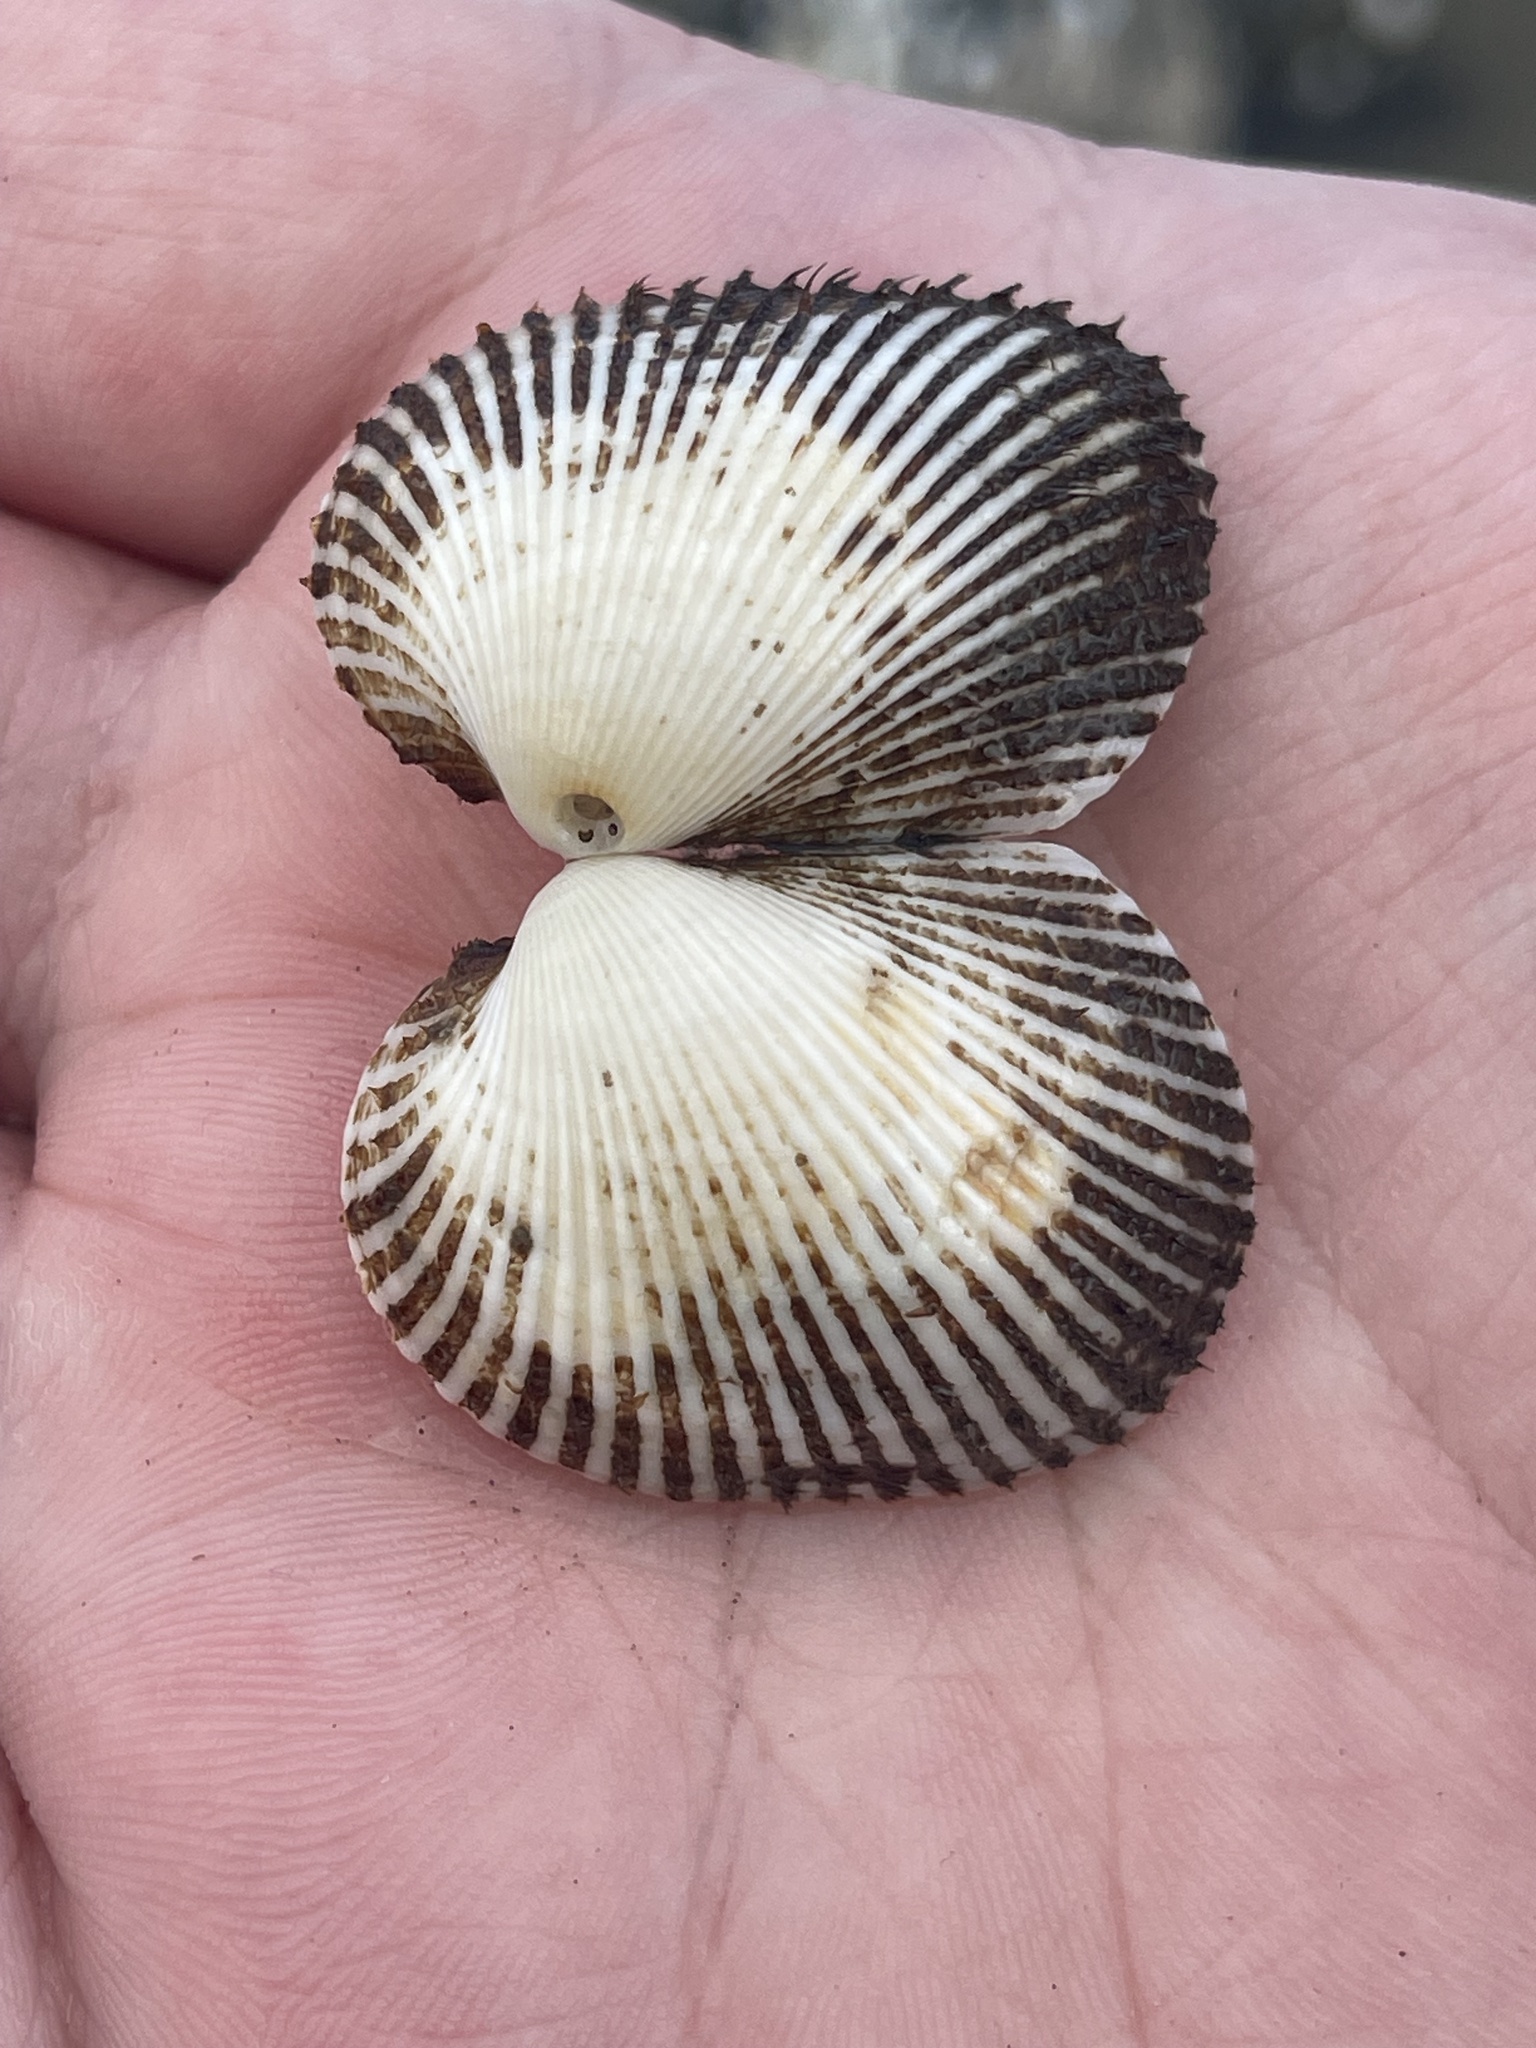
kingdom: Animalia
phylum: Mollusca
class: Bivalvia
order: Arcida
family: Arcidae
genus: Lunarca
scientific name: Lunarca ovalis
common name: Blood ark
